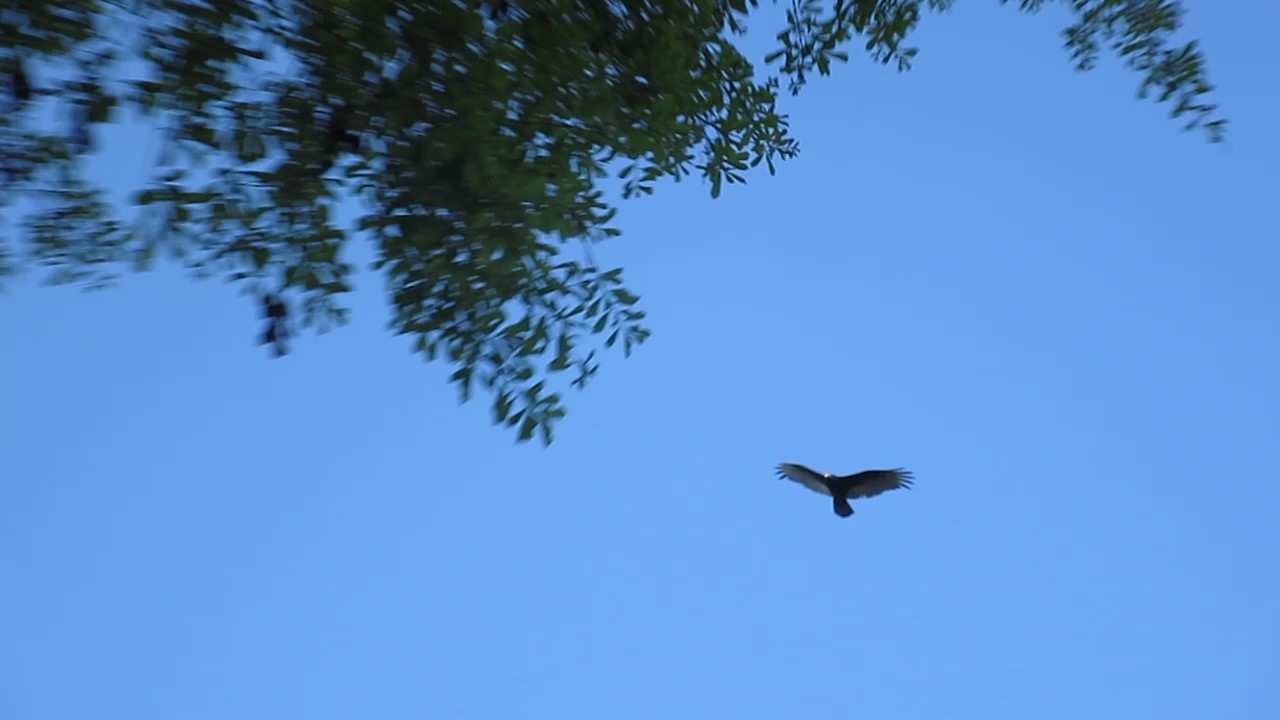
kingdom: Animalia
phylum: Chordata
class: Aves
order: Accipitriformes
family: Cathartidae
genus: Cathartes
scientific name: Cathartes aura
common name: Turkey vulture
